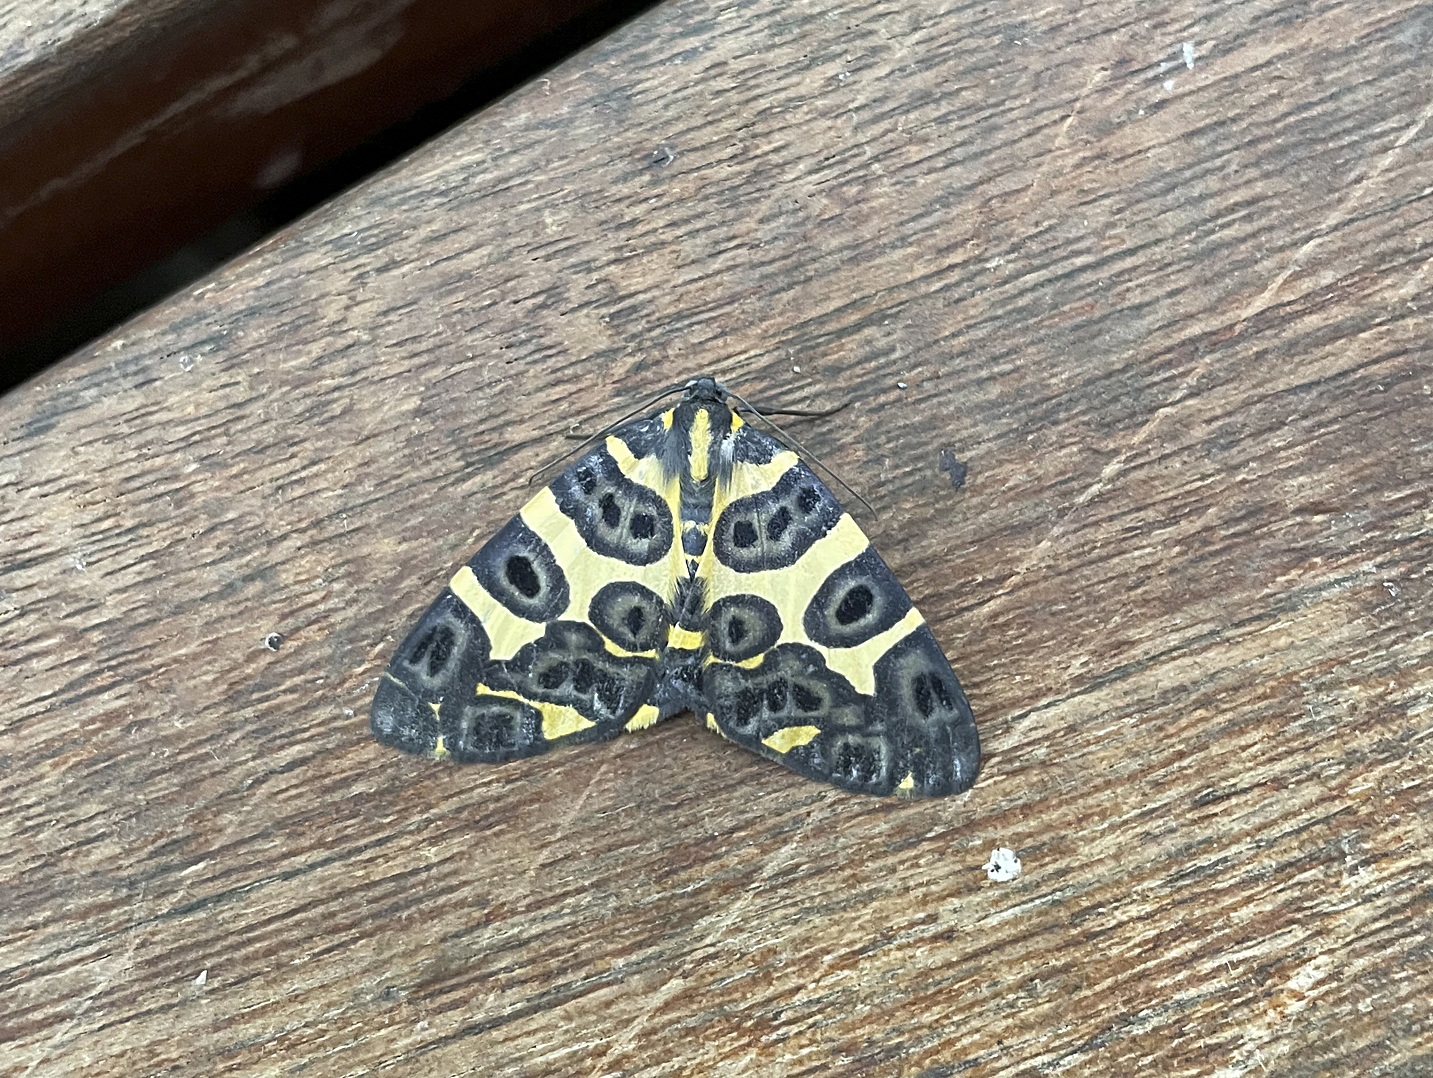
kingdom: Animalia
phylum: Arthropoda
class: Insecta
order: Lepidoptera
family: Geometridae
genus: Pantherodes
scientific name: Pantherodes pardalaria
